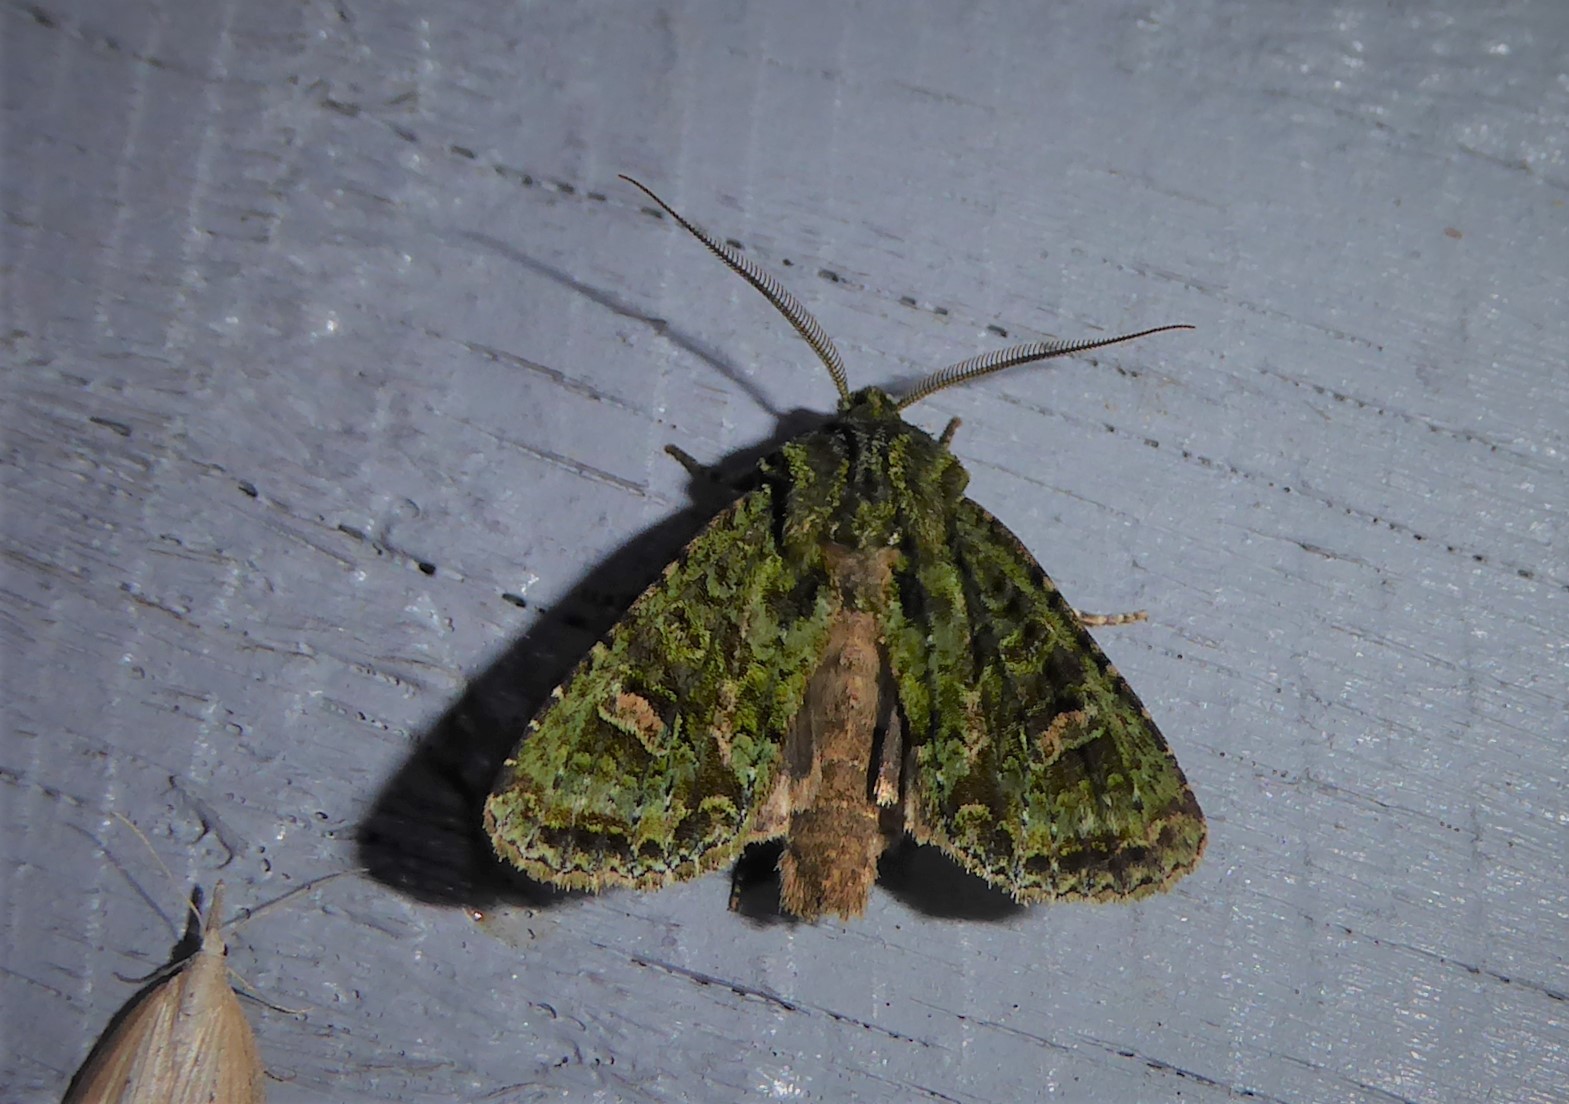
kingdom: Animalia
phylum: Arthropoda
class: Insecta
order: Lepidoptera
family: Noctuidae
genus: Ichneutica
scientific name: Ichneutica
